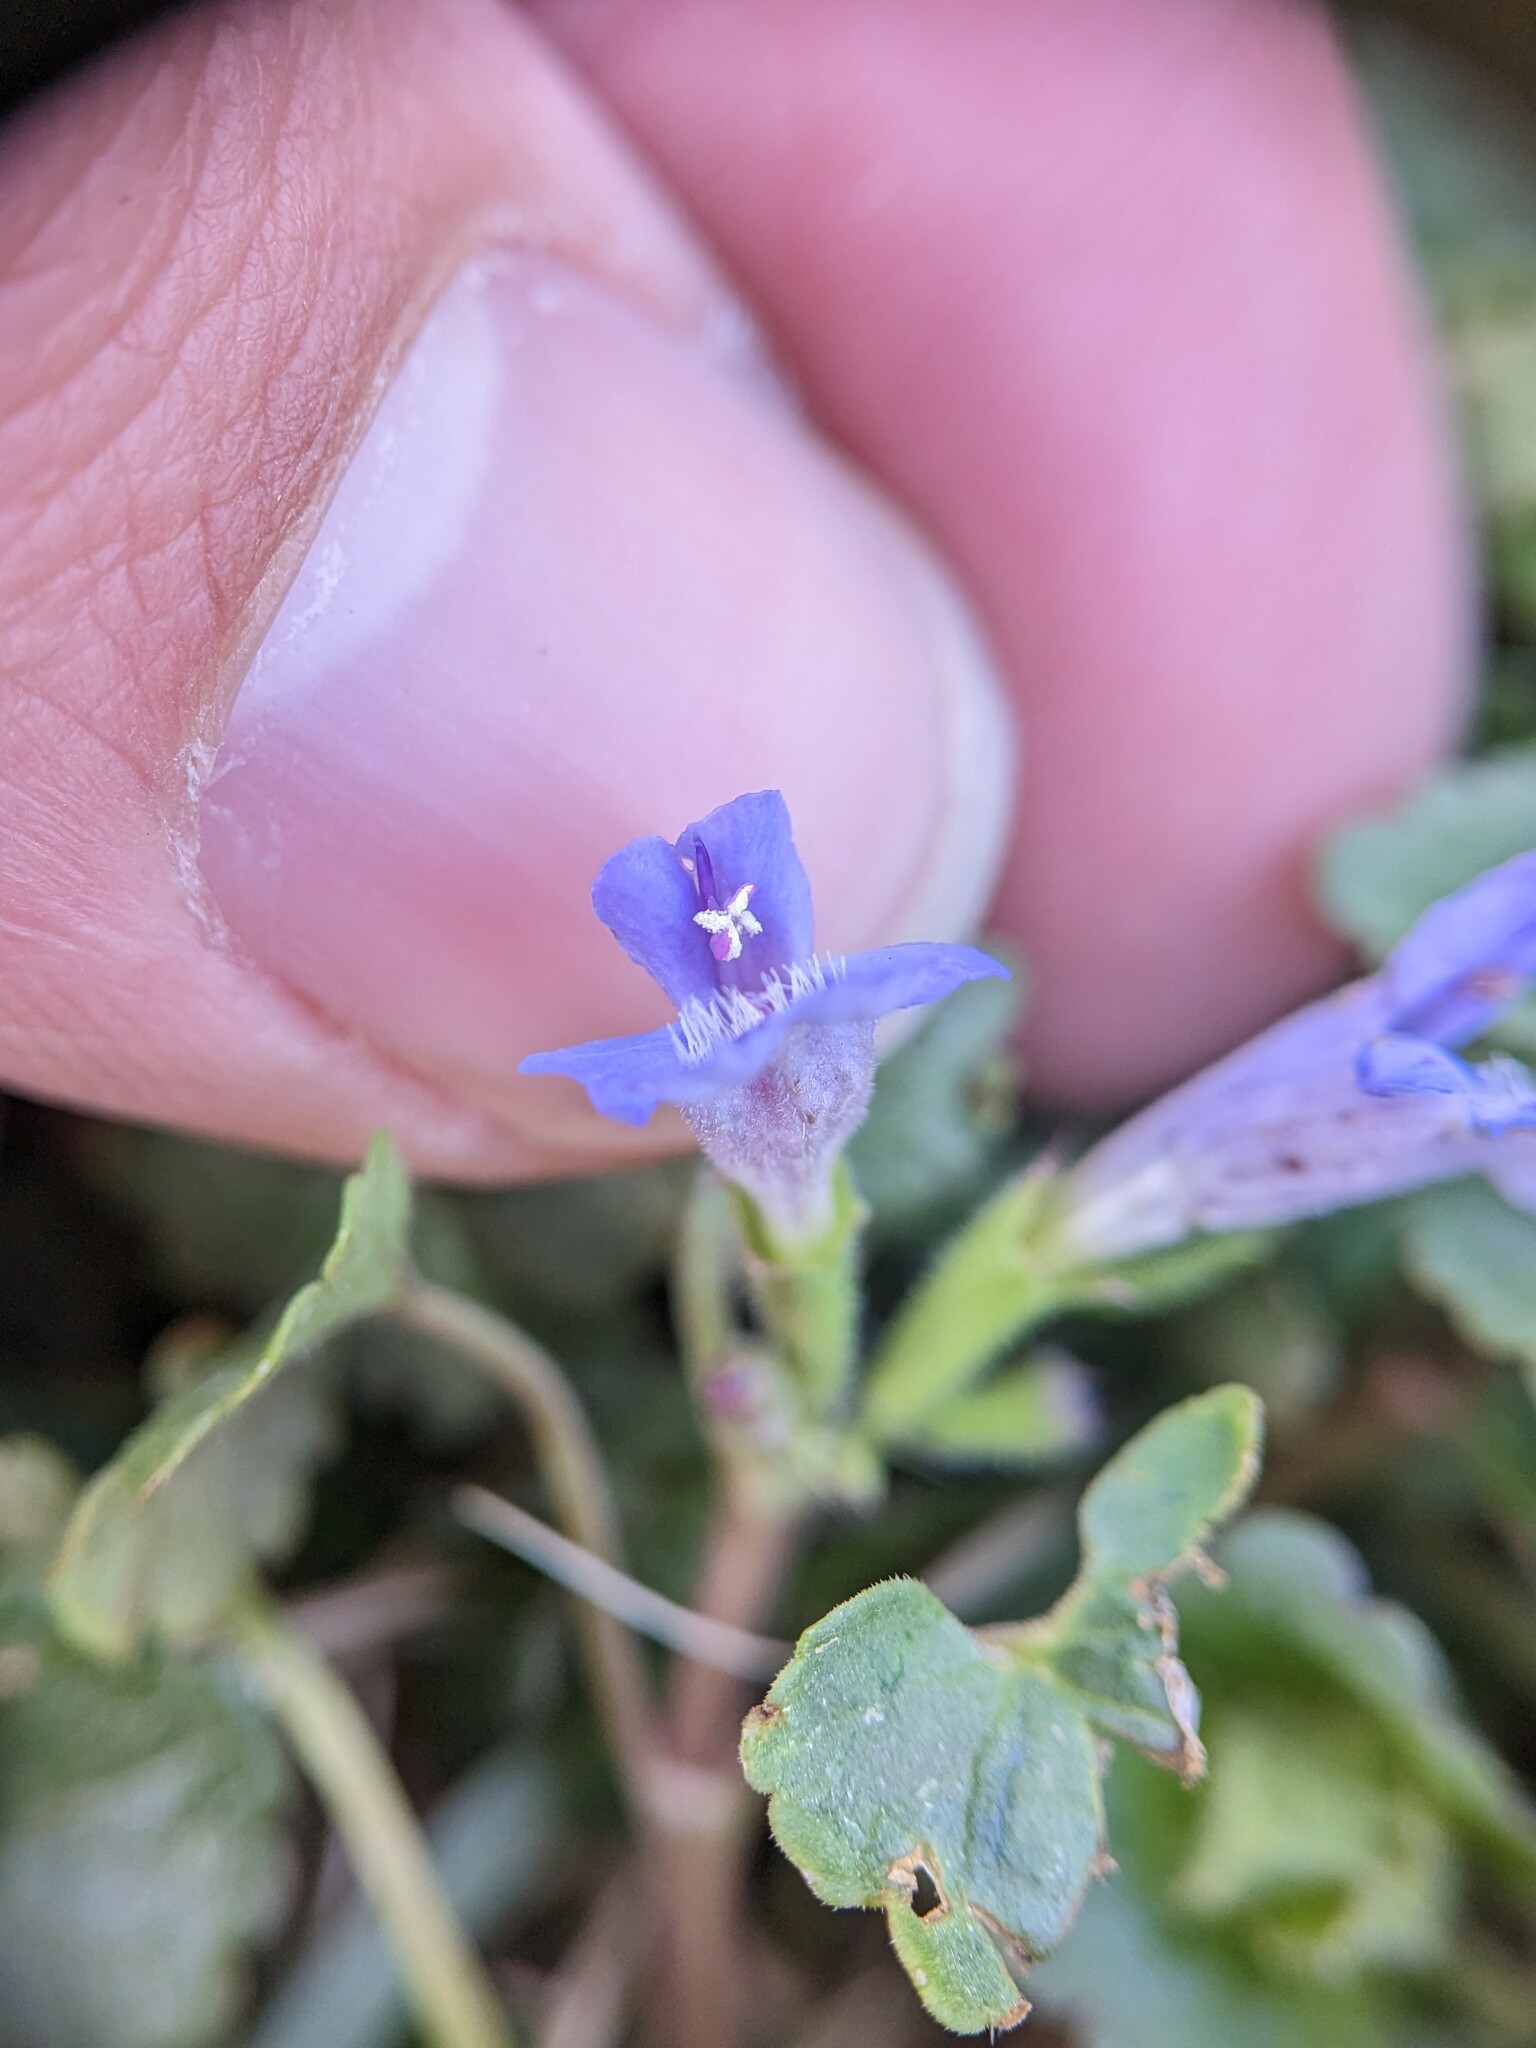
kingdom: Plantae
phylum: Tracheophyta
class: Magnoliopsida
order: Lamiales
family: Lamiaceae
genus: Glechoma
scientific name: Glechoma hederacea
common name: Ground ivy
